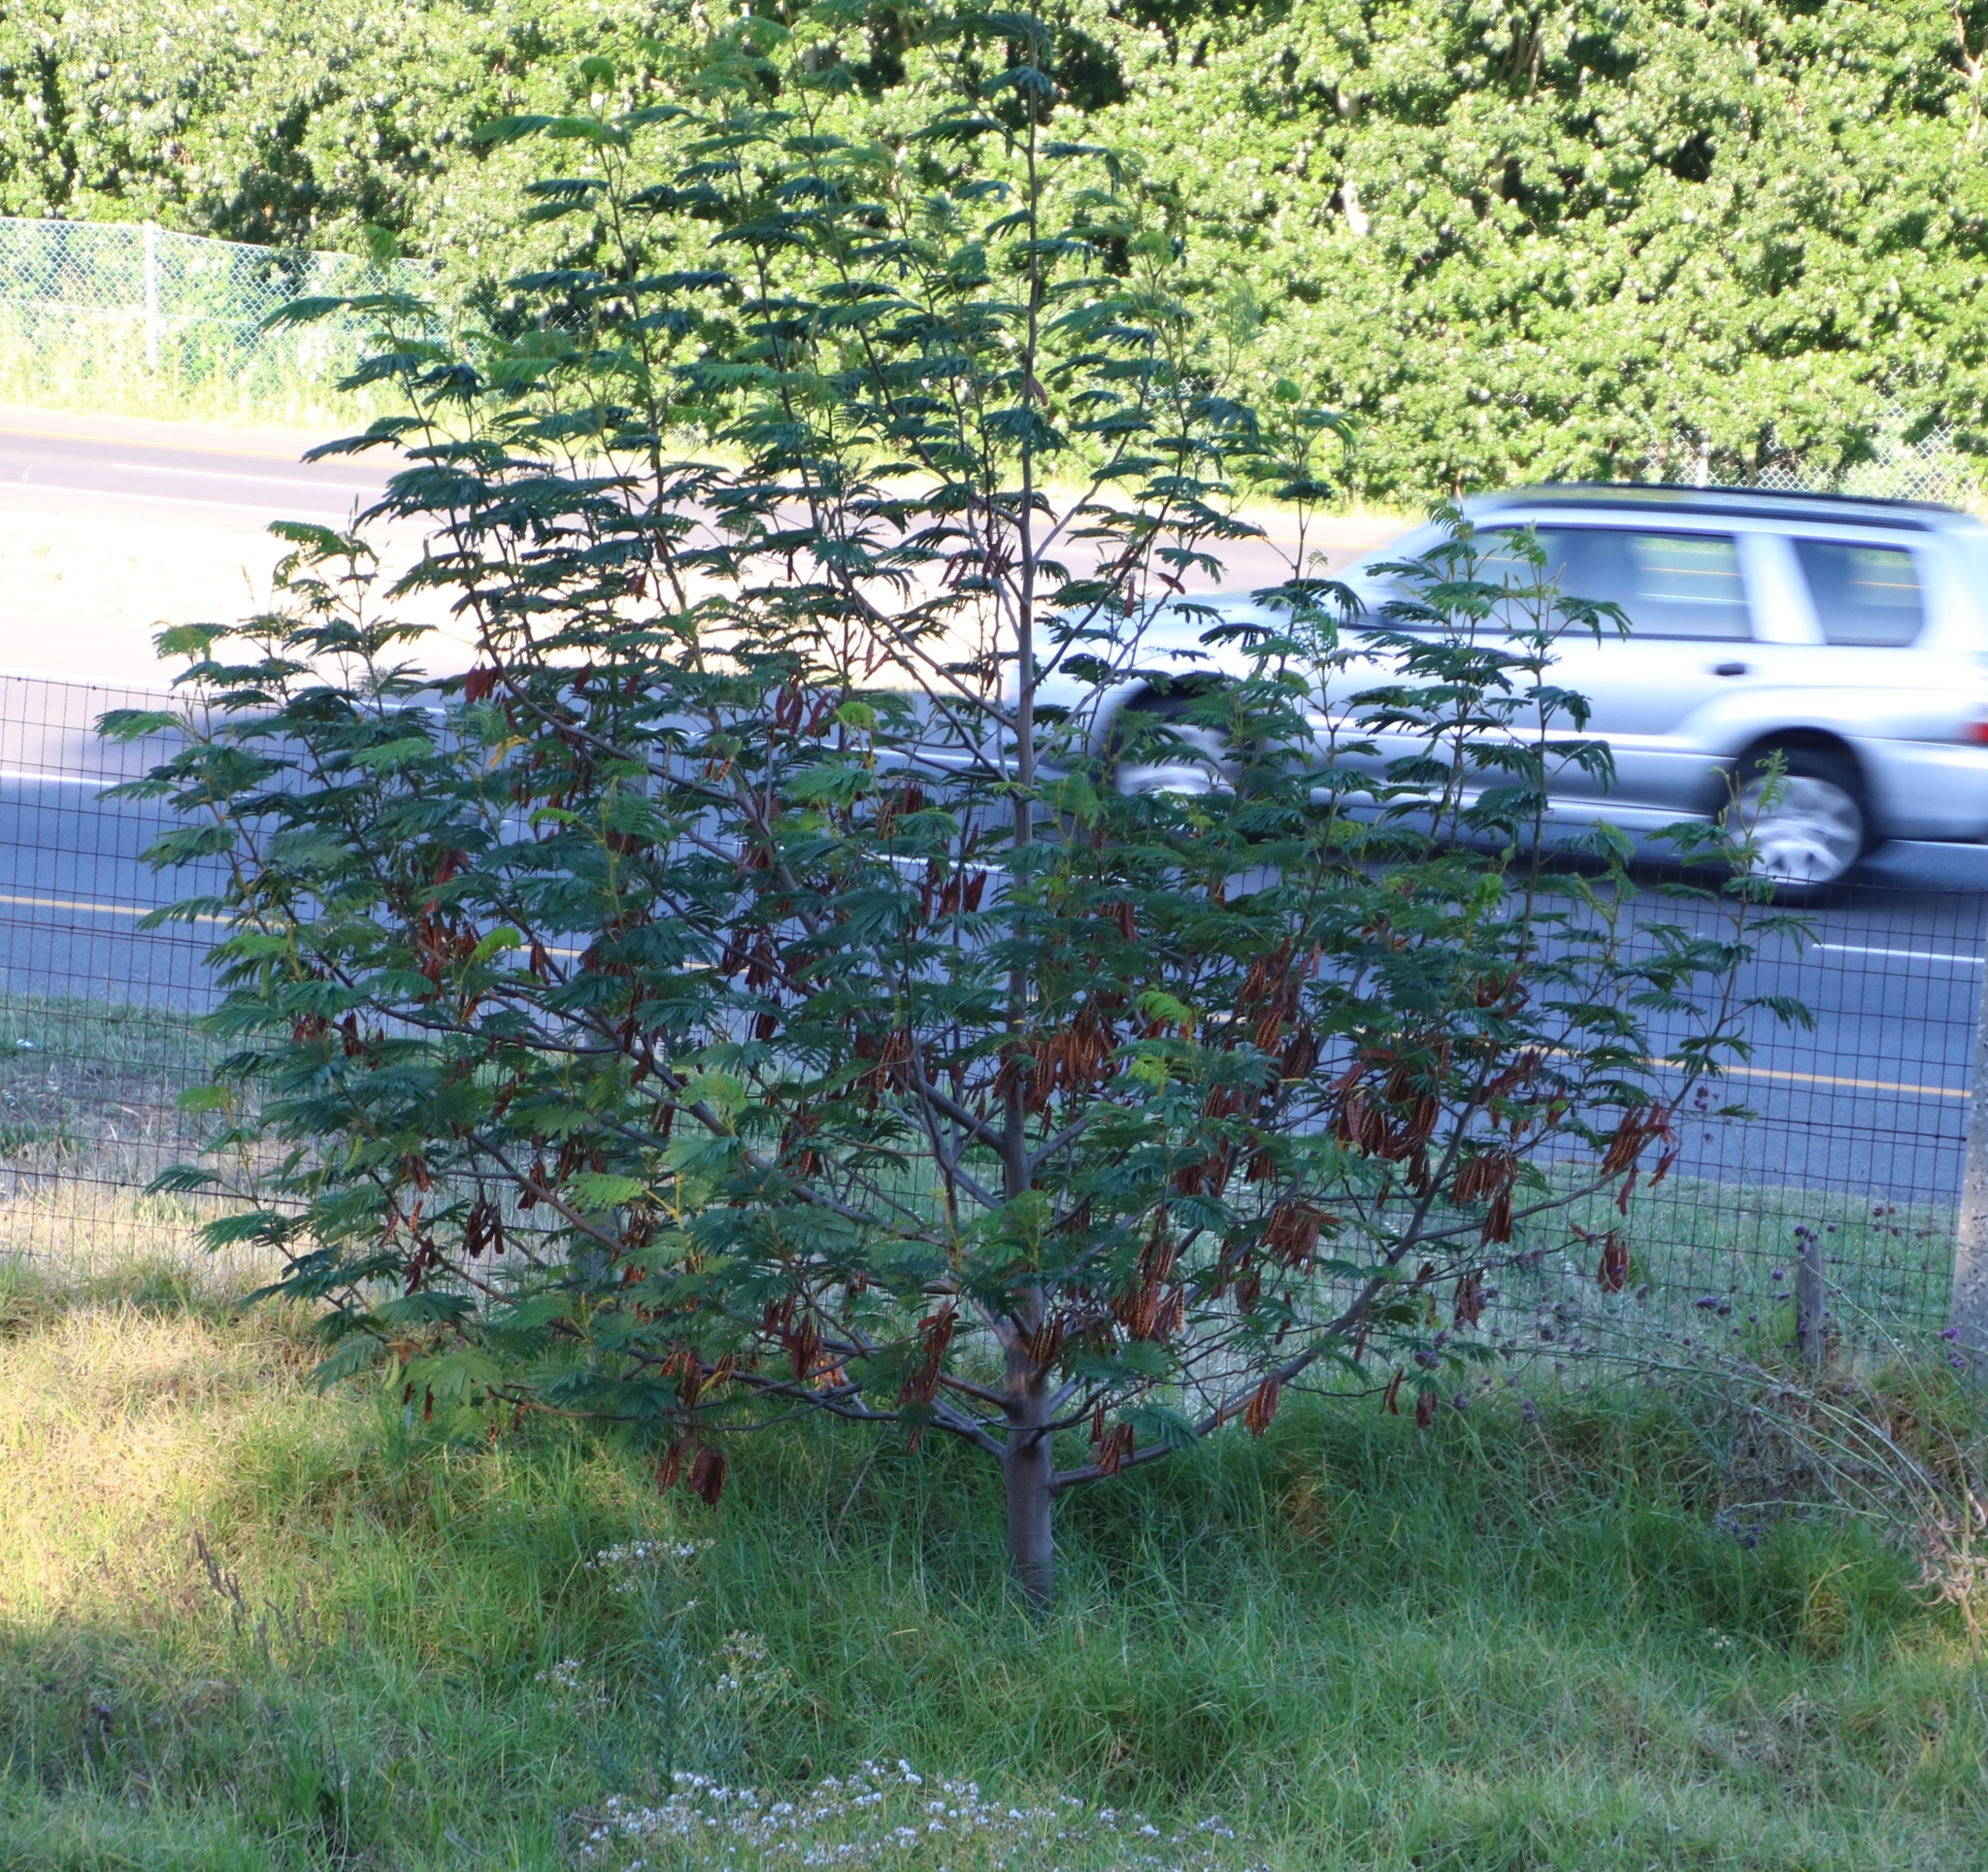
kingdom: Plantae
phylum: Tracheophyta
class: Magnoliopsida
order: Fabales
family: Fabaceae
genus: Paraserianthes
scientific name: Paraserianthes lophantha
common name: Plume albizia
